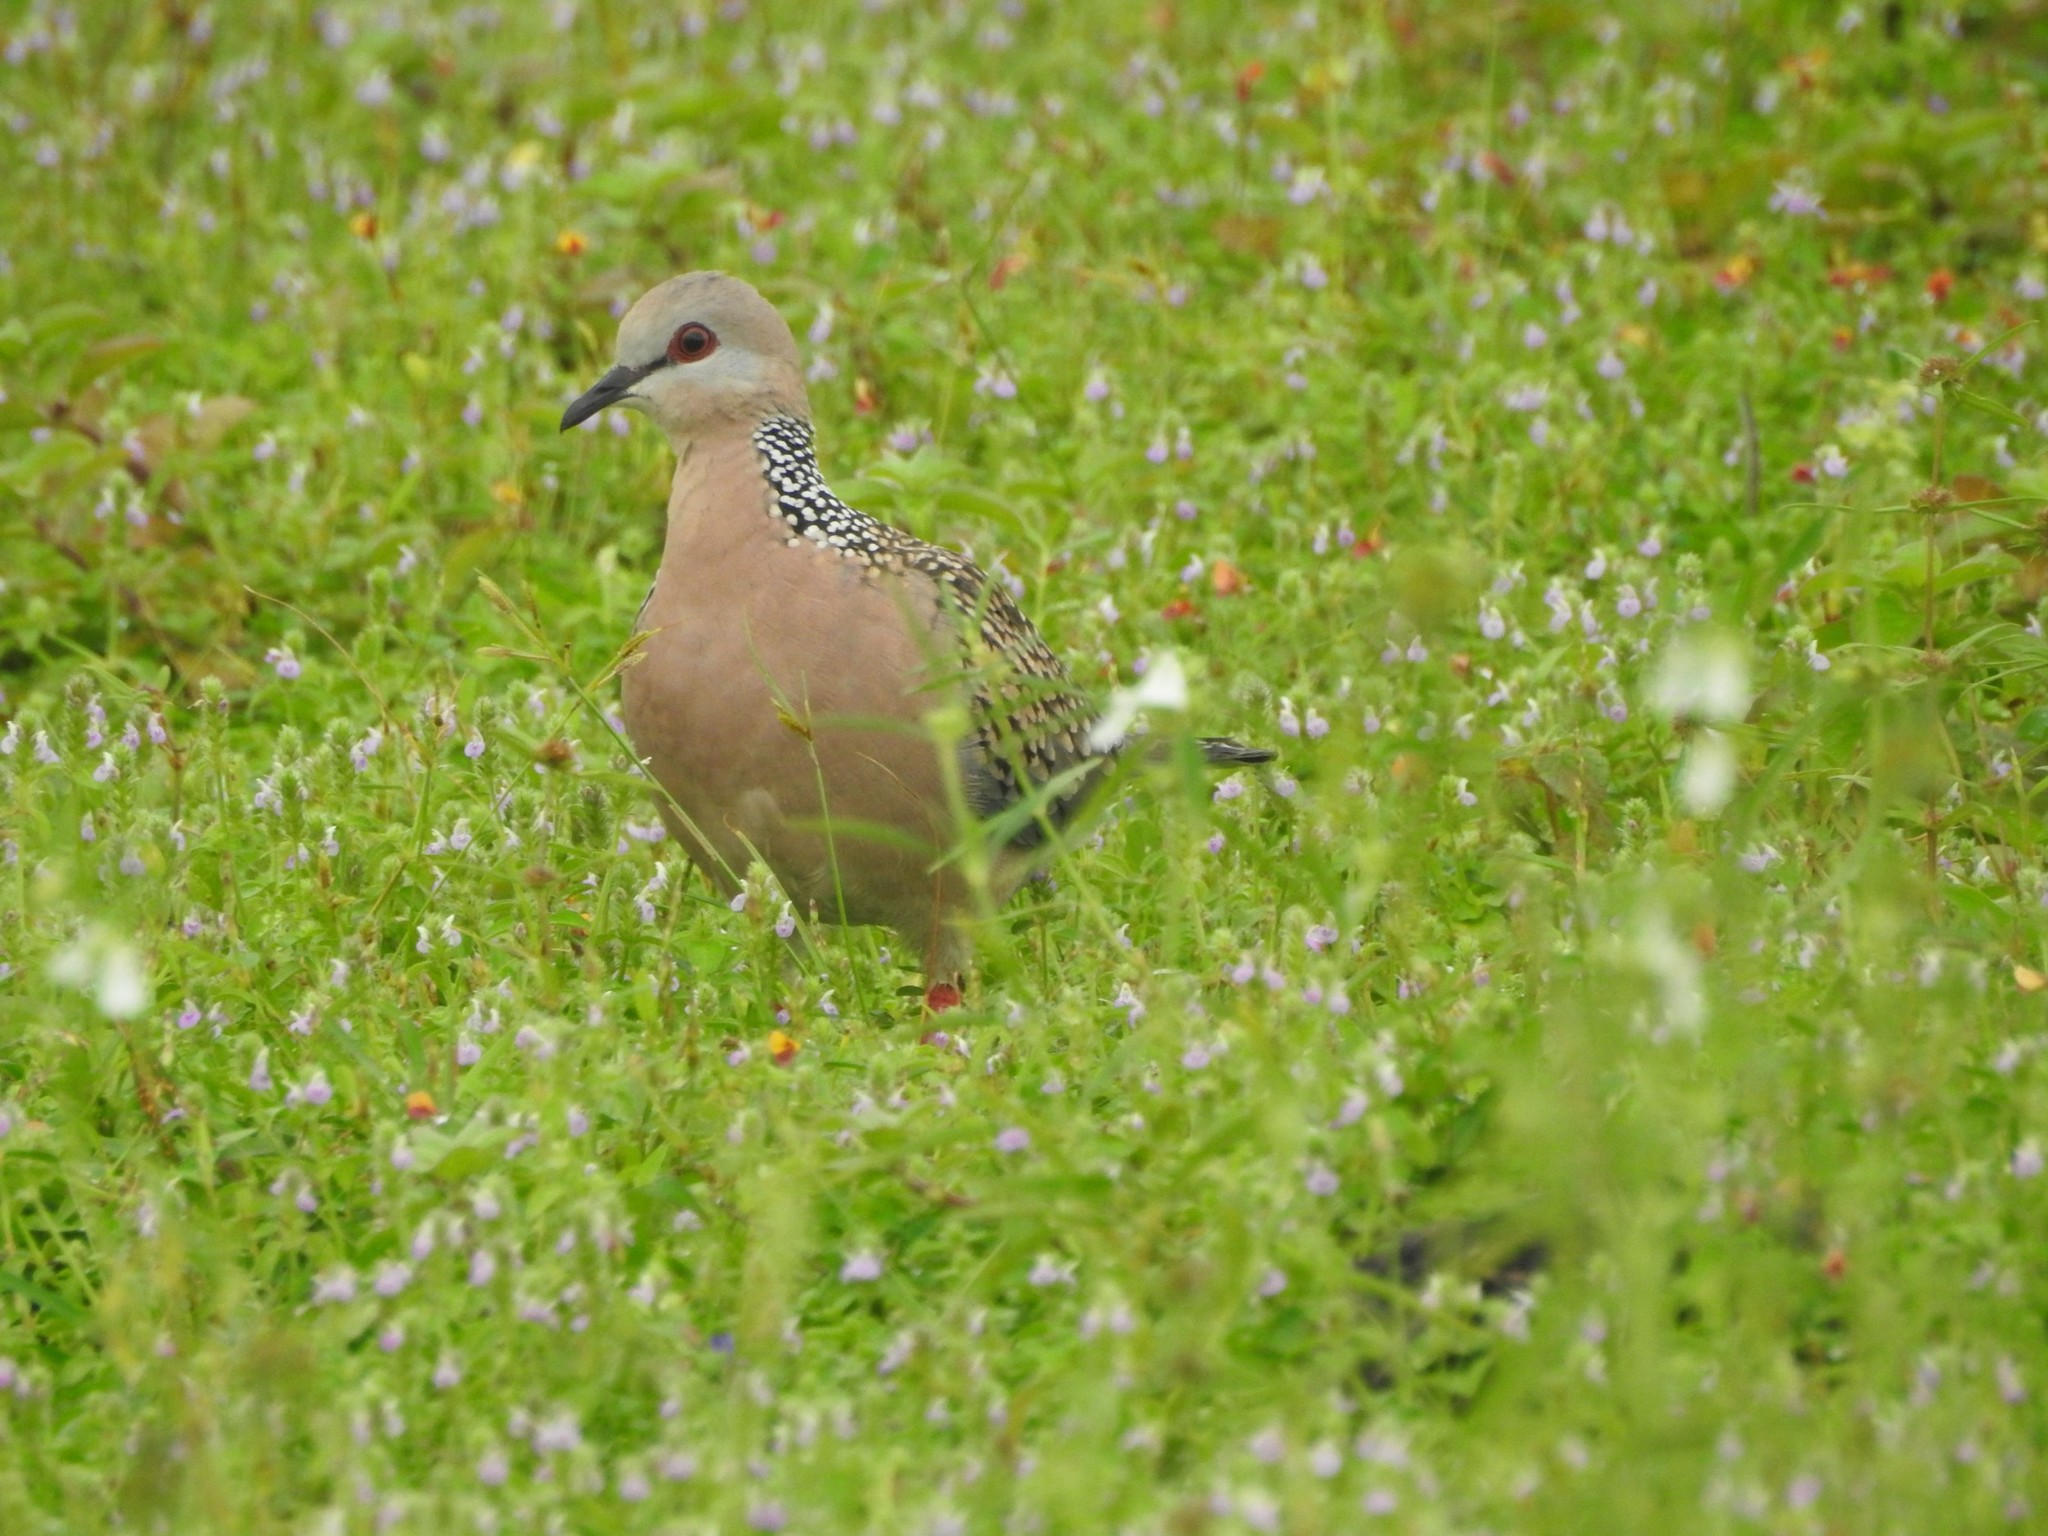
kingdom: Animalia
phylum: Chordata
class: Aves
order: Columbiformes
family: Columbidae
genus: Spilopelia
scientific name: Spilopelia chinensis
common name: Spotted dove
